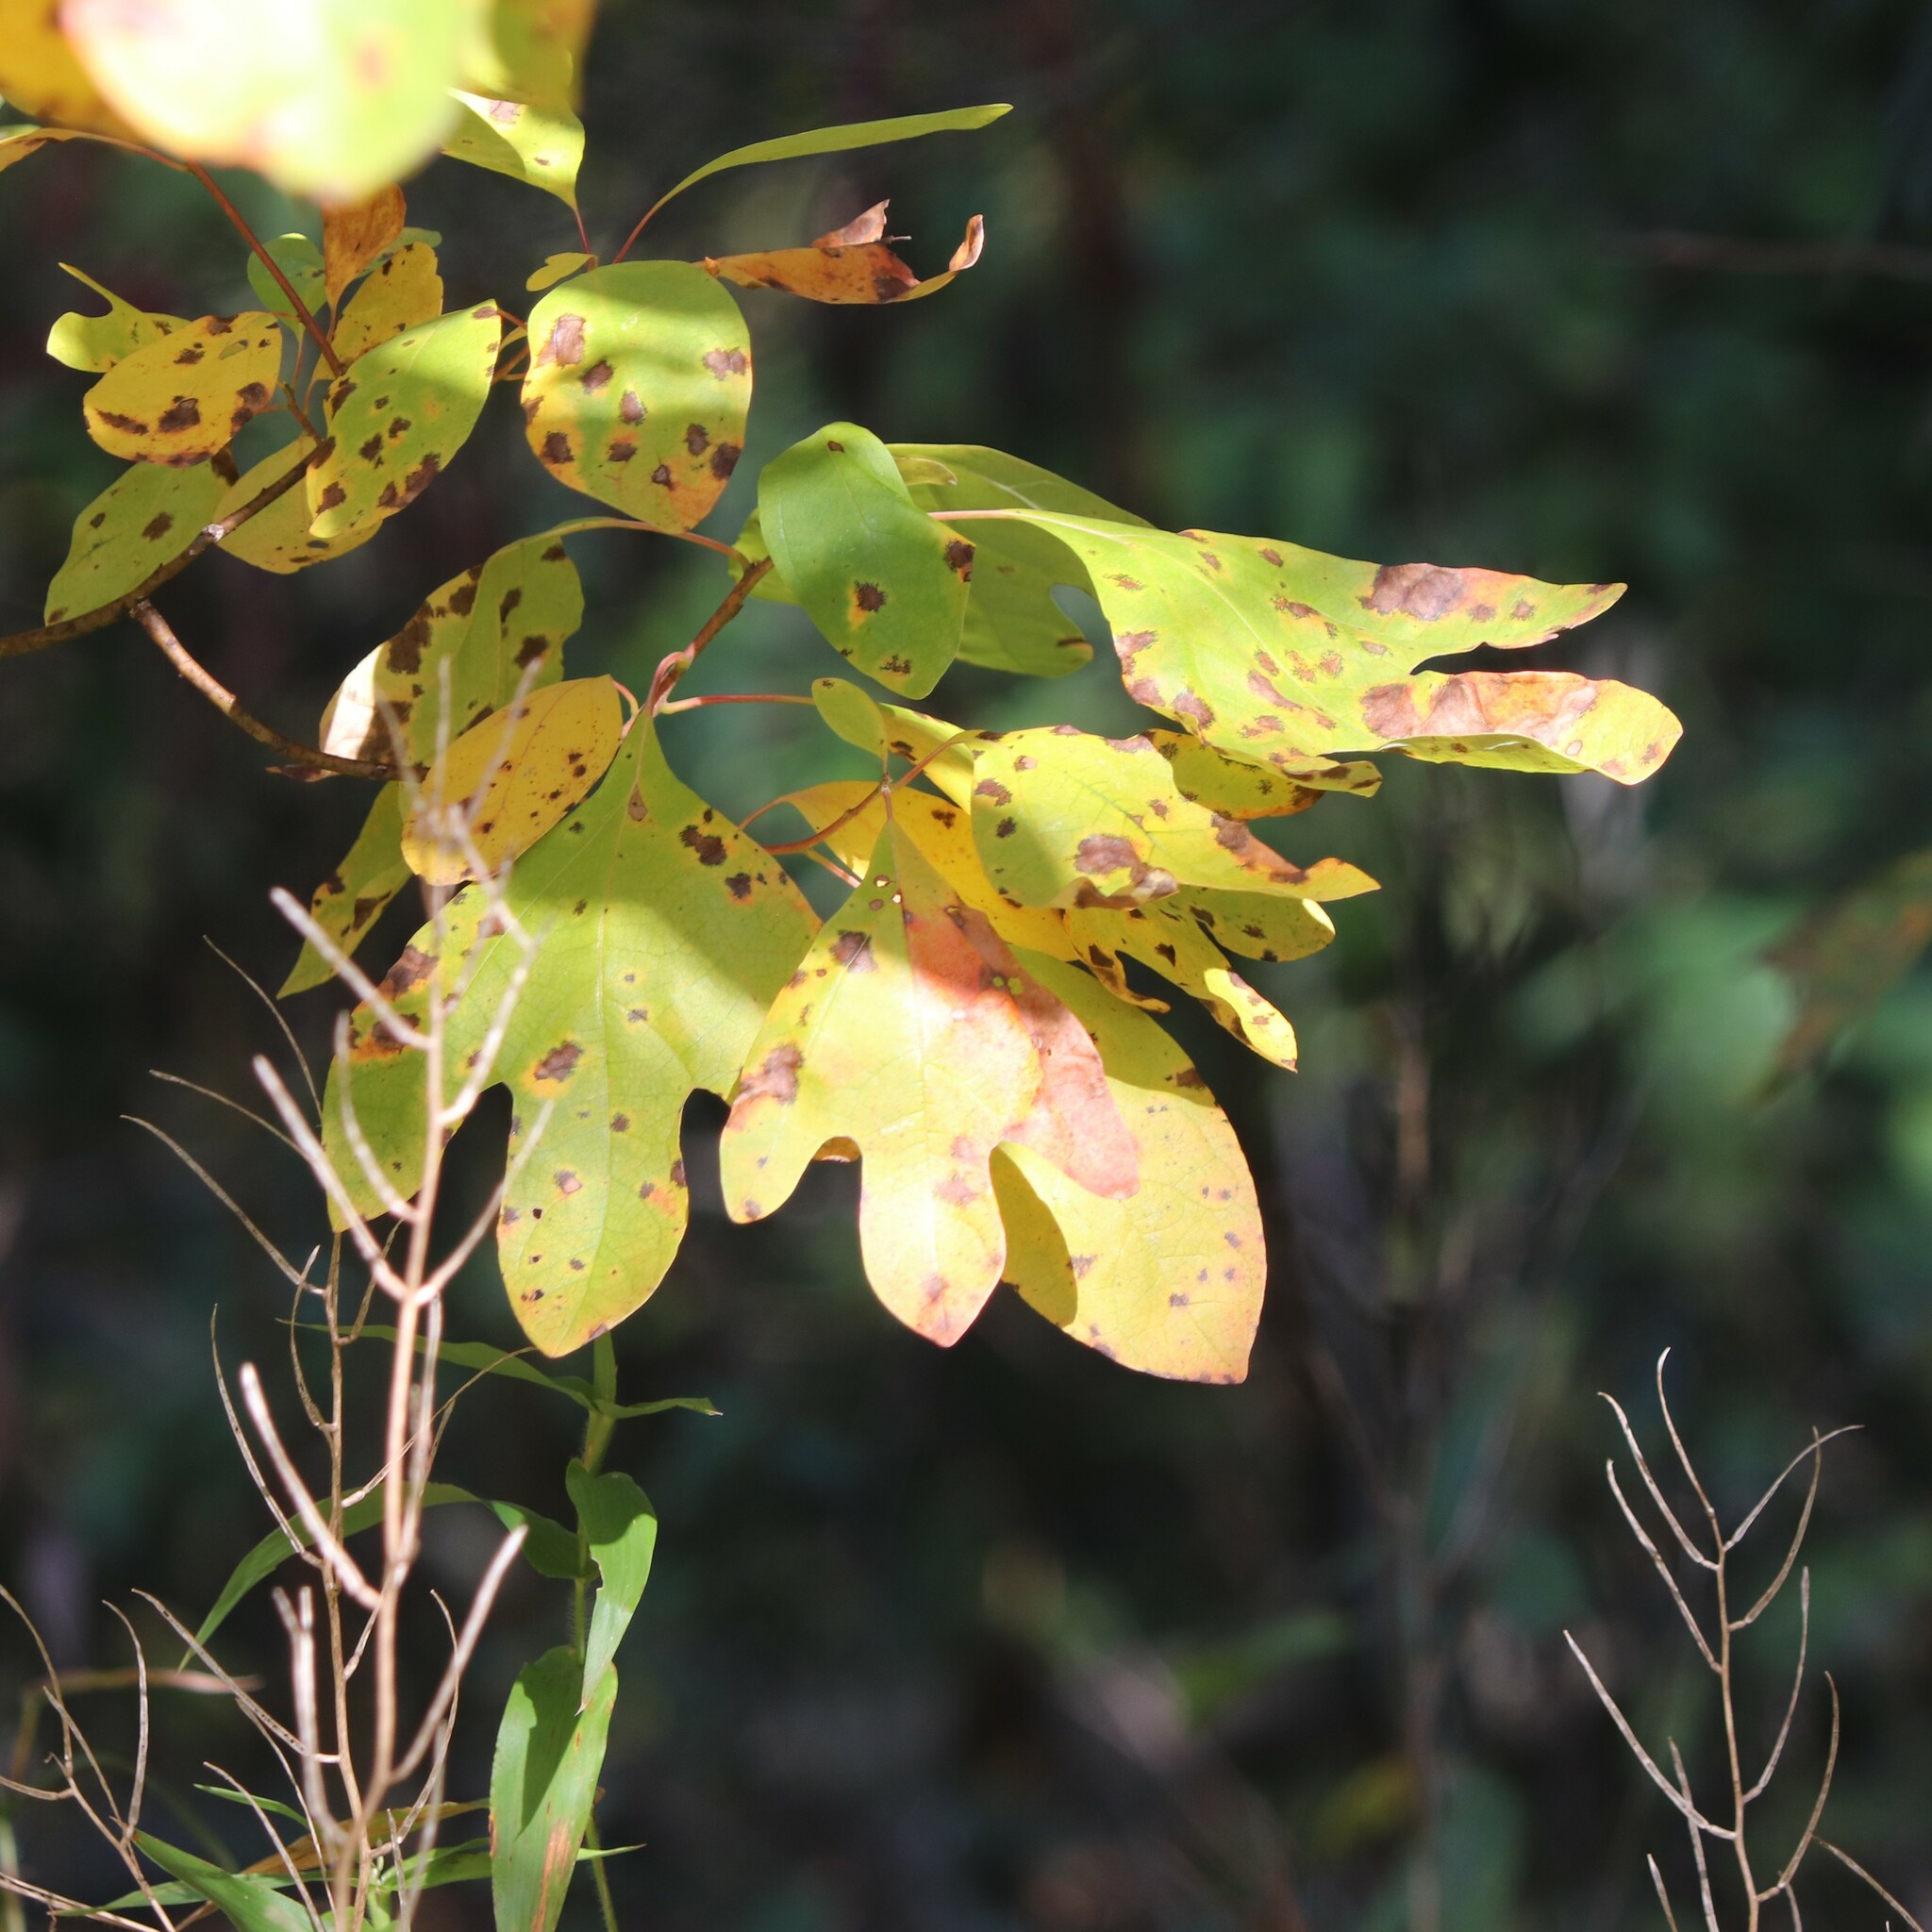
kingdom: Plantae
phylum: Tracheophyta
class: Magnoliopsida
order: Laurales
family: Lauraceae
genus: Sassafras
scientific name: Sassafras albidum
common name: Sassafras
